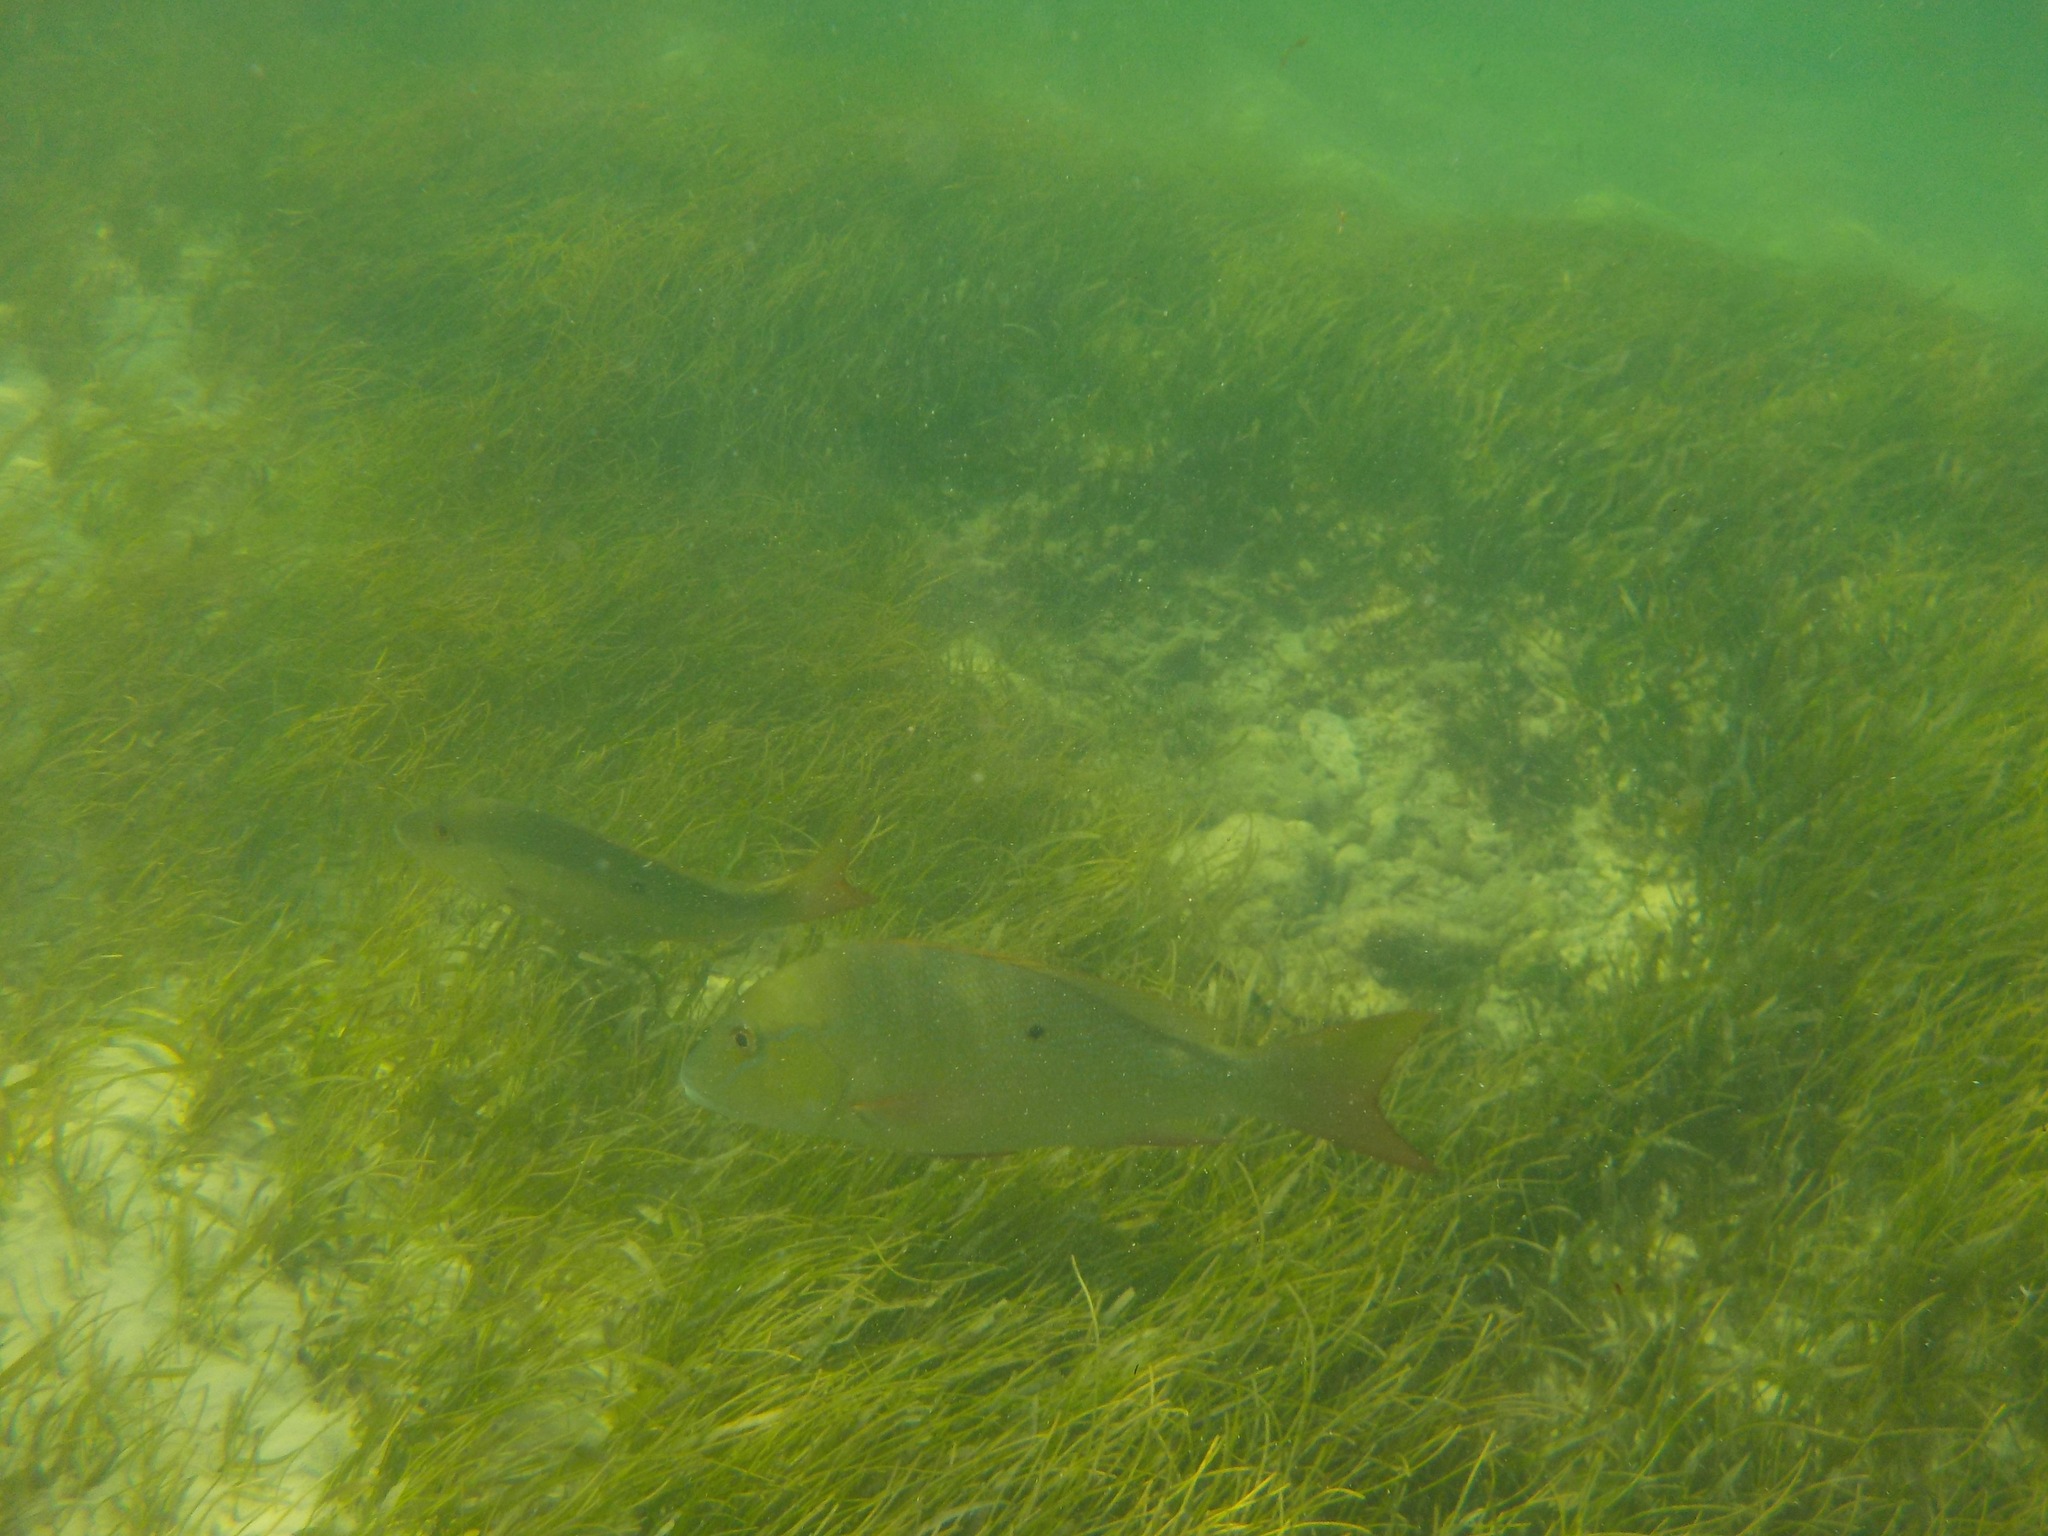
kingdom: Animalia
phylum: Chordata
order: Perciformes
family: Lutjanidae
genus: Lutjanus
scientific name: Lutjanus analis
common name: Mutton snapper
